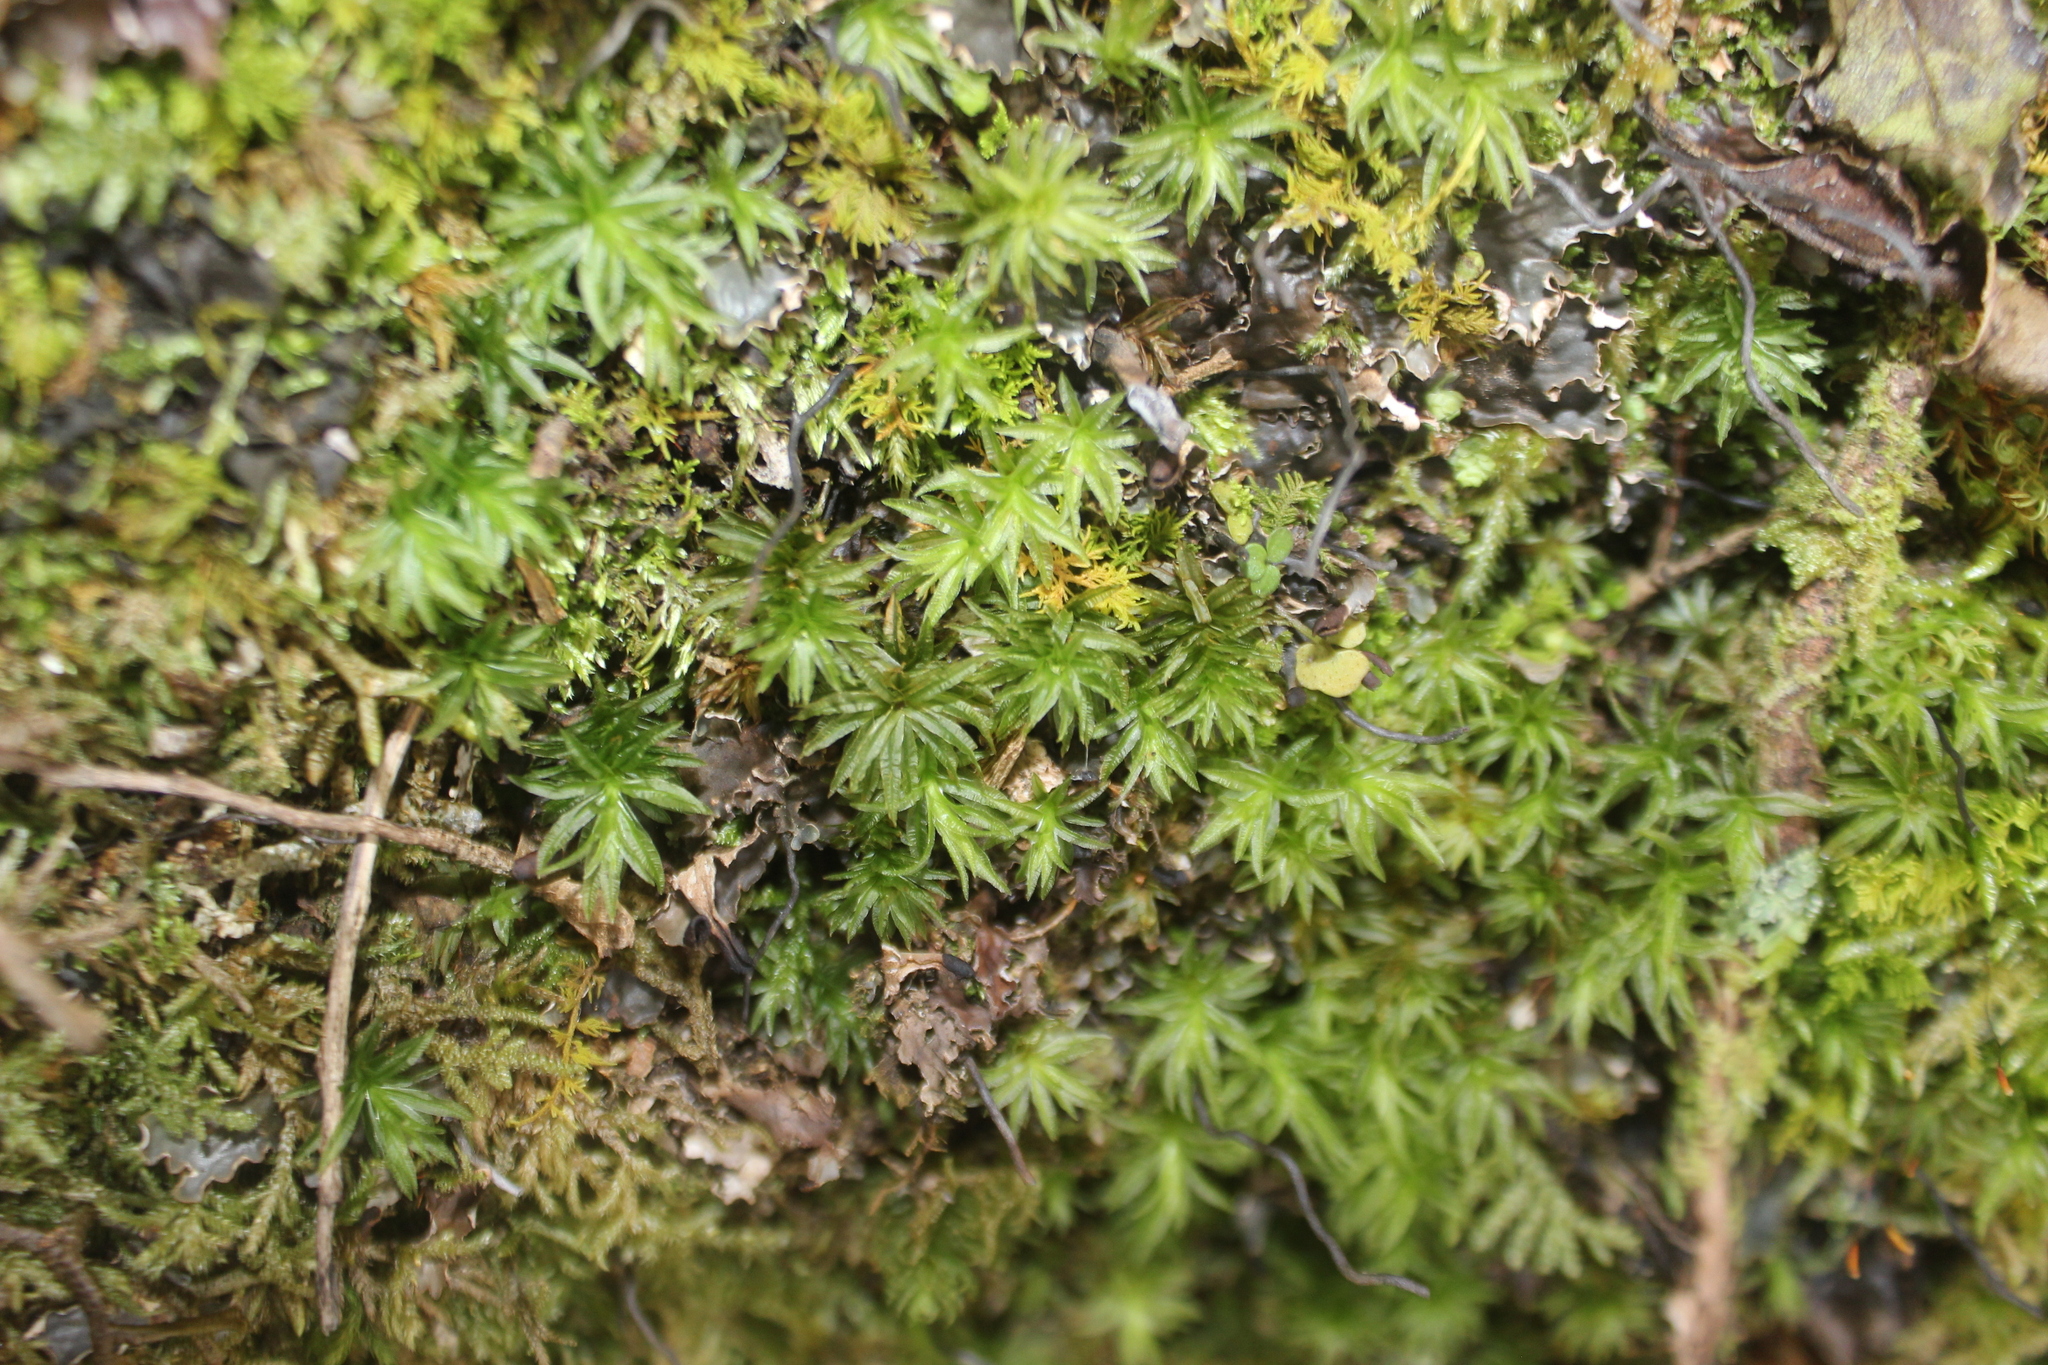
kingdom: Plantae
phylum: Bryophyta
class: Polytrichopsida
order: Polytrichales
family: Polytrichaceae
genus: Atrichum
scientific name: Atrichum androgynum
